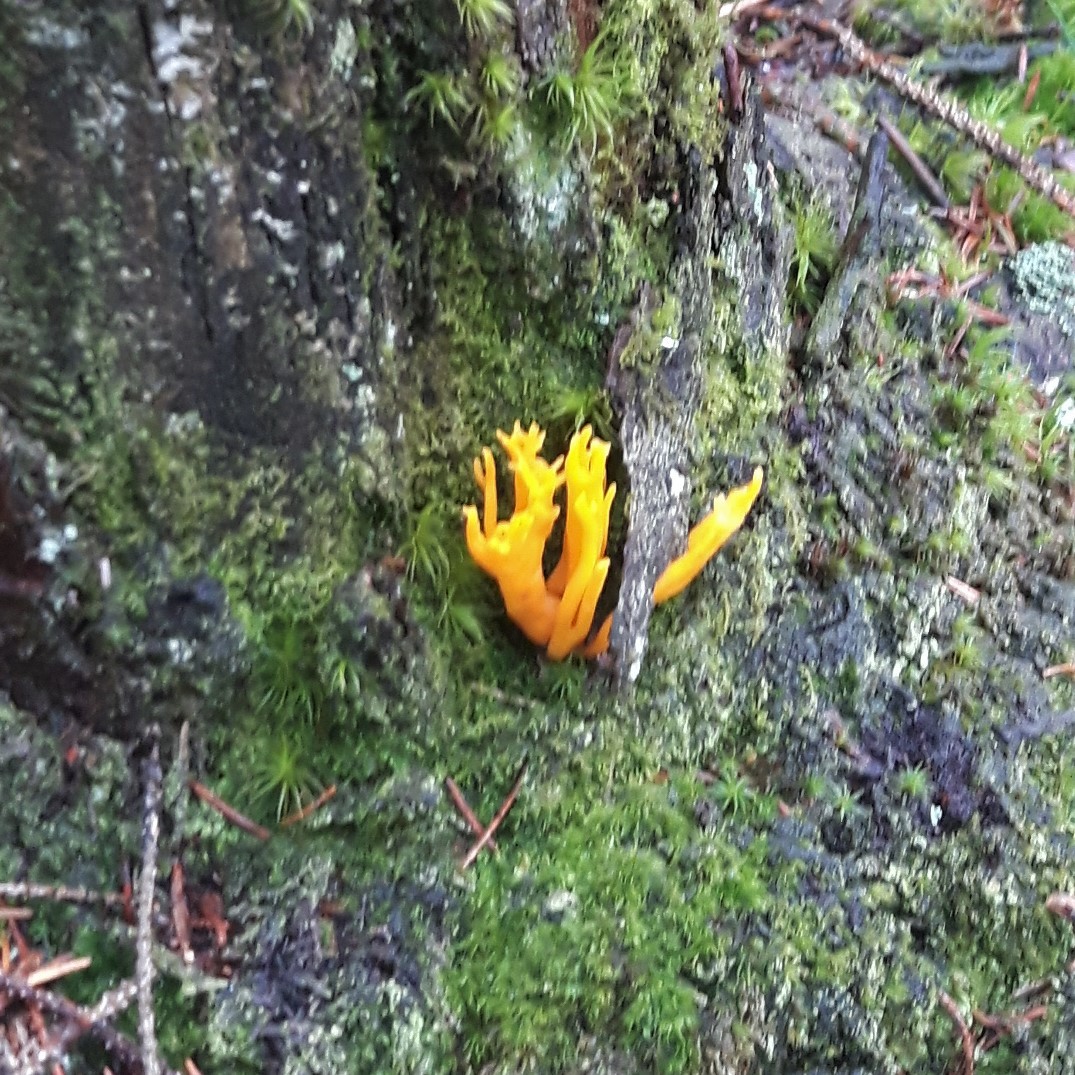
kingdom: Fungi
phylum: Basidiomycota
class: Dacrymycetes
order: Dacrymycetales
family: Dacrymycetaceae
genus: Calocera
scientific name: Calocera viscosa
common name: Yellow stagshorn
